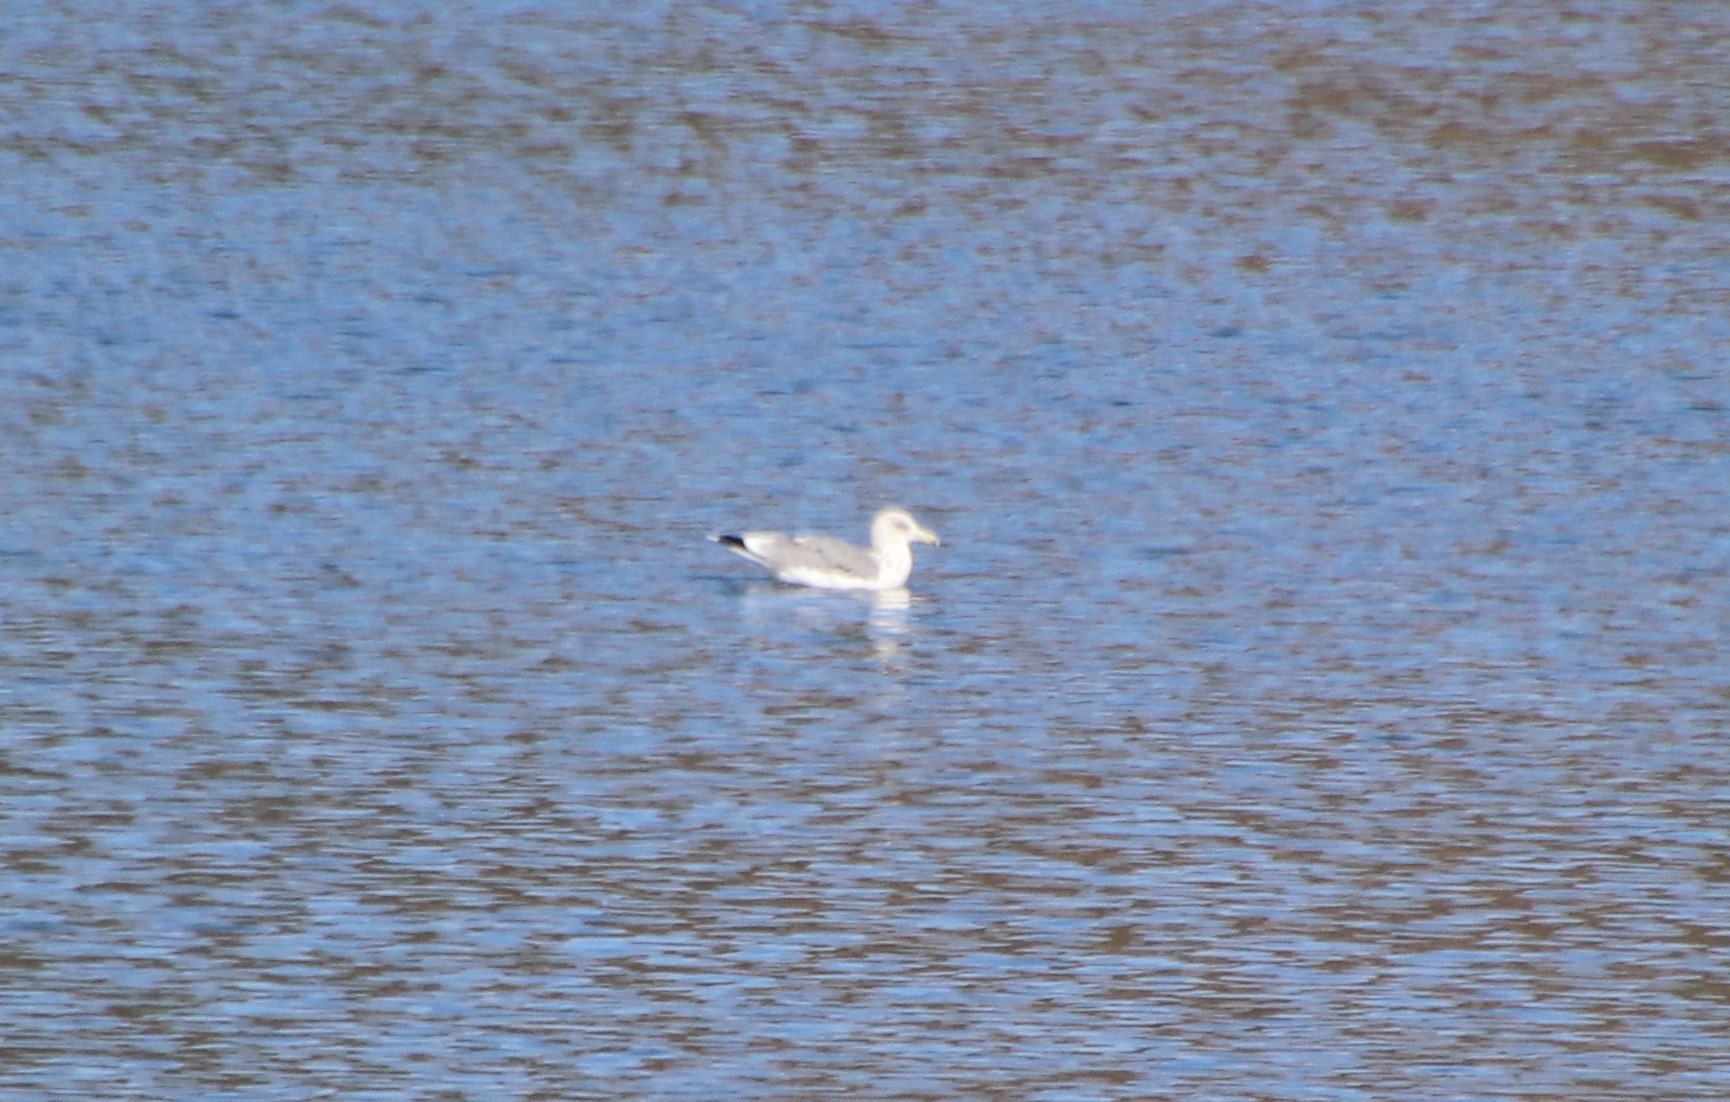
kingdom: Animalia
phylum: Chordata
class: Aves
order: Charadriiformes
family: Laridae
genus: Larus
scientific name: Larus californicus
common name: California gull
